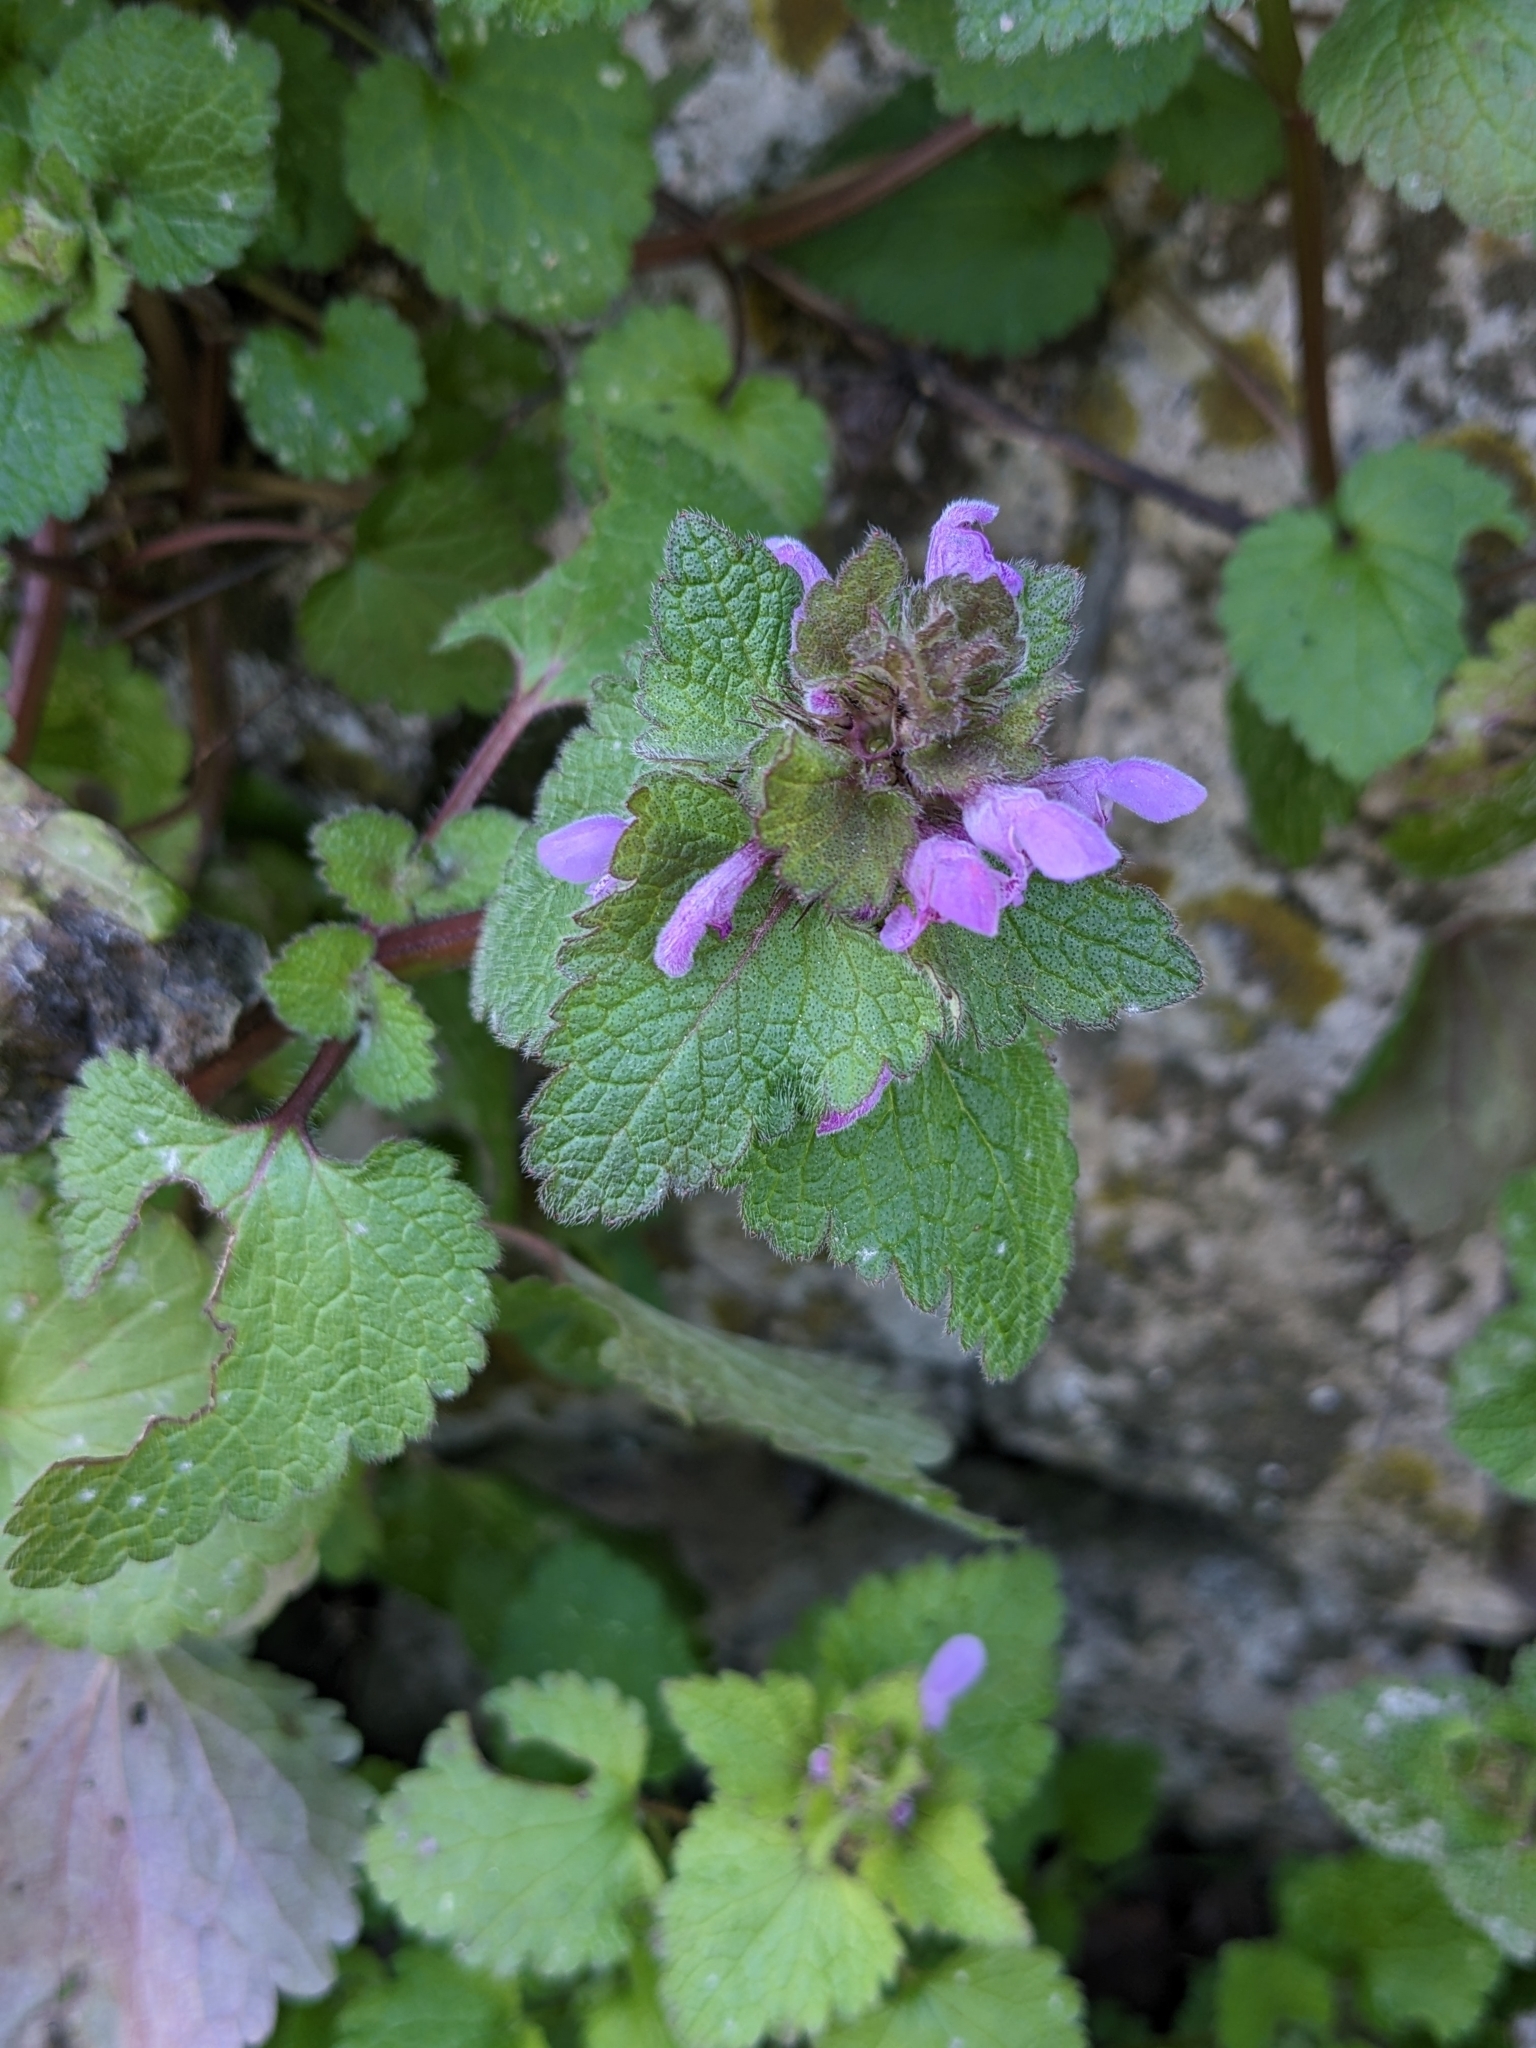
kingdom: Plantae
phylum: Tracheophyta
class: Magnoliopsida
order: Lamiales
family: Lamiaceae
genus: Lamium
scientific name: Lamium purpureum
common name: Red dead-nettle
